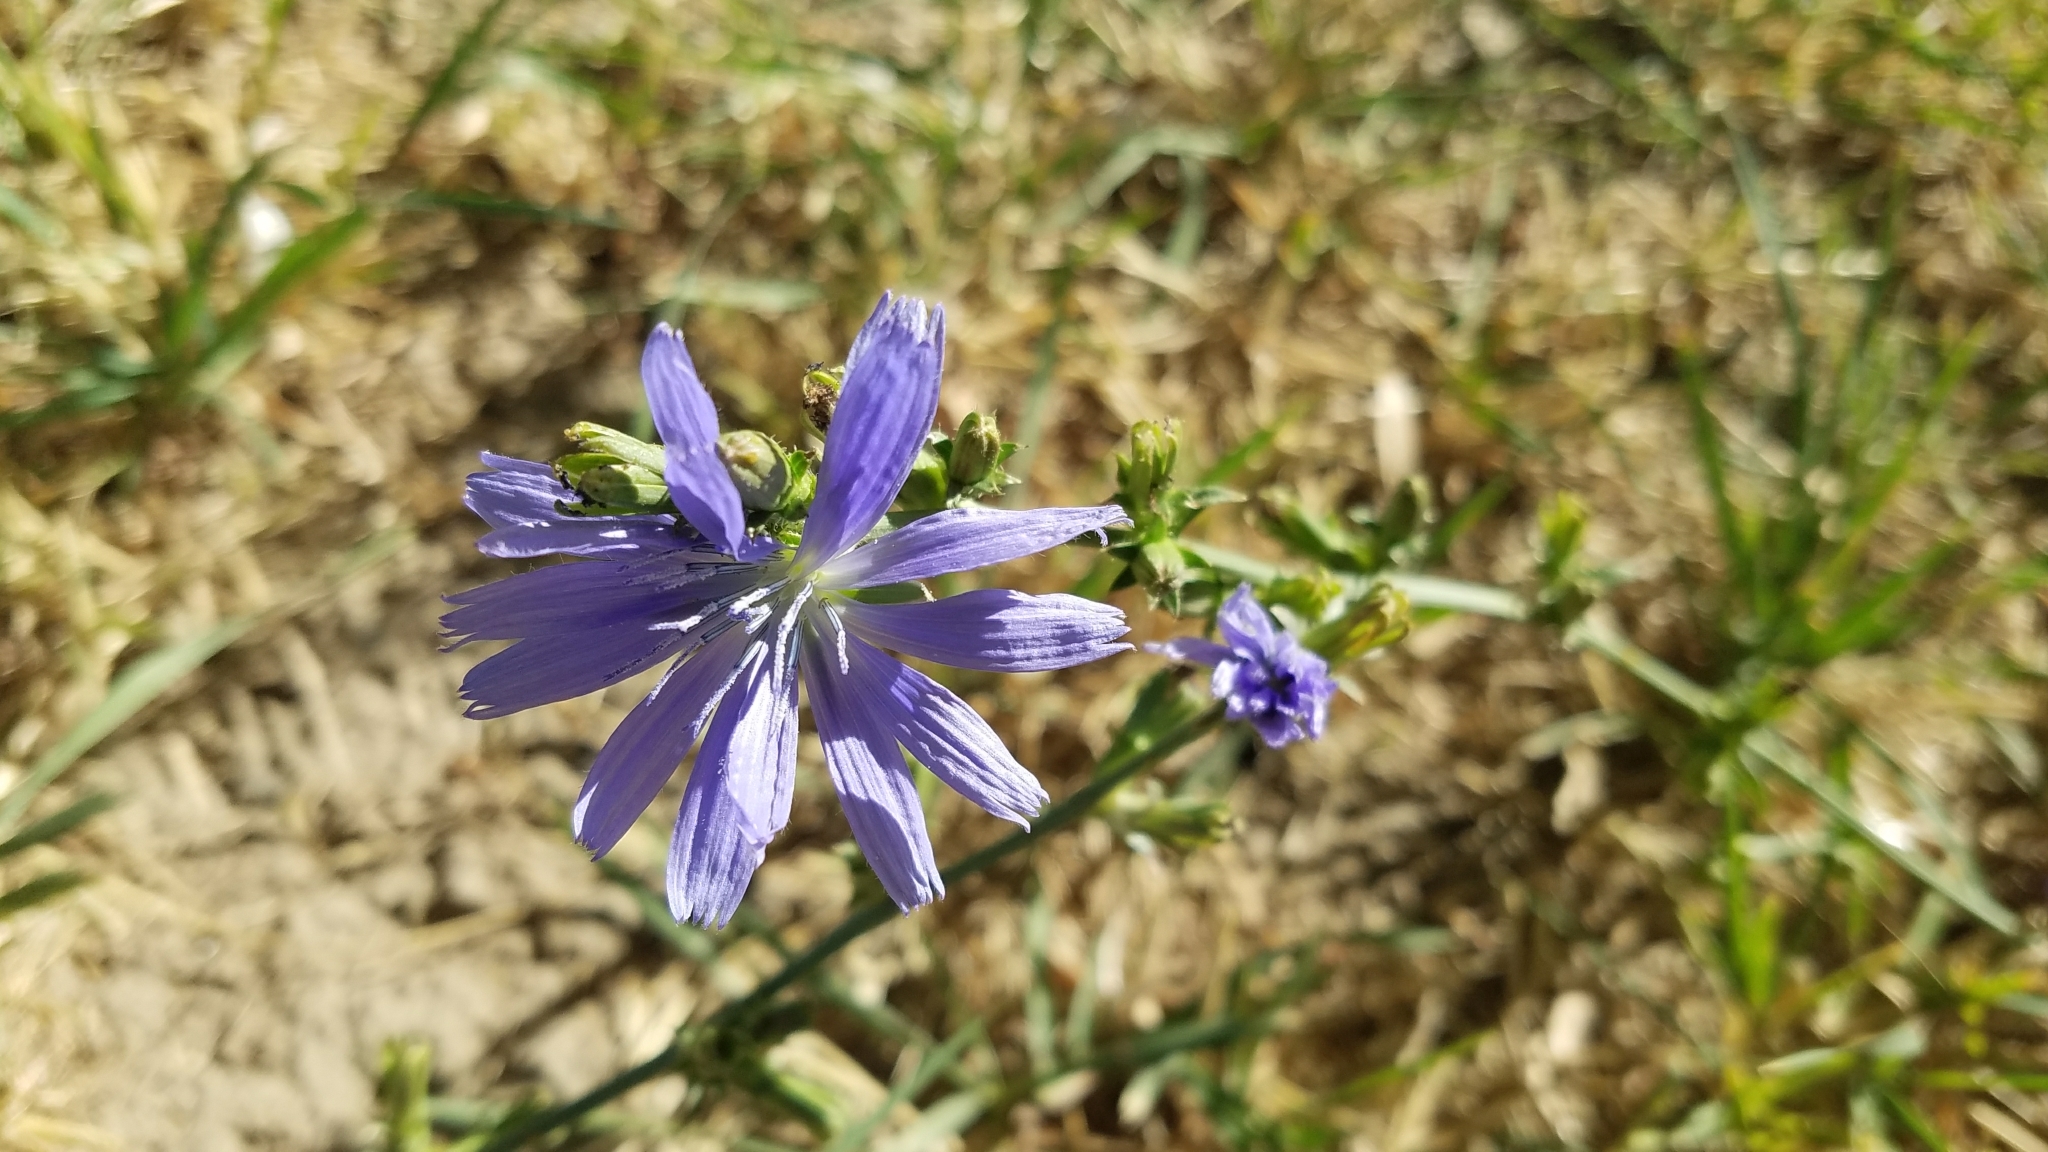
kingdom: Plantae
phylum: Tracheophyta
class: Magnoliopsida
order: Asterales
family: Asteraceae
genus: Cichorium
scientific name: Cichorium intybus
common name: Chicory
